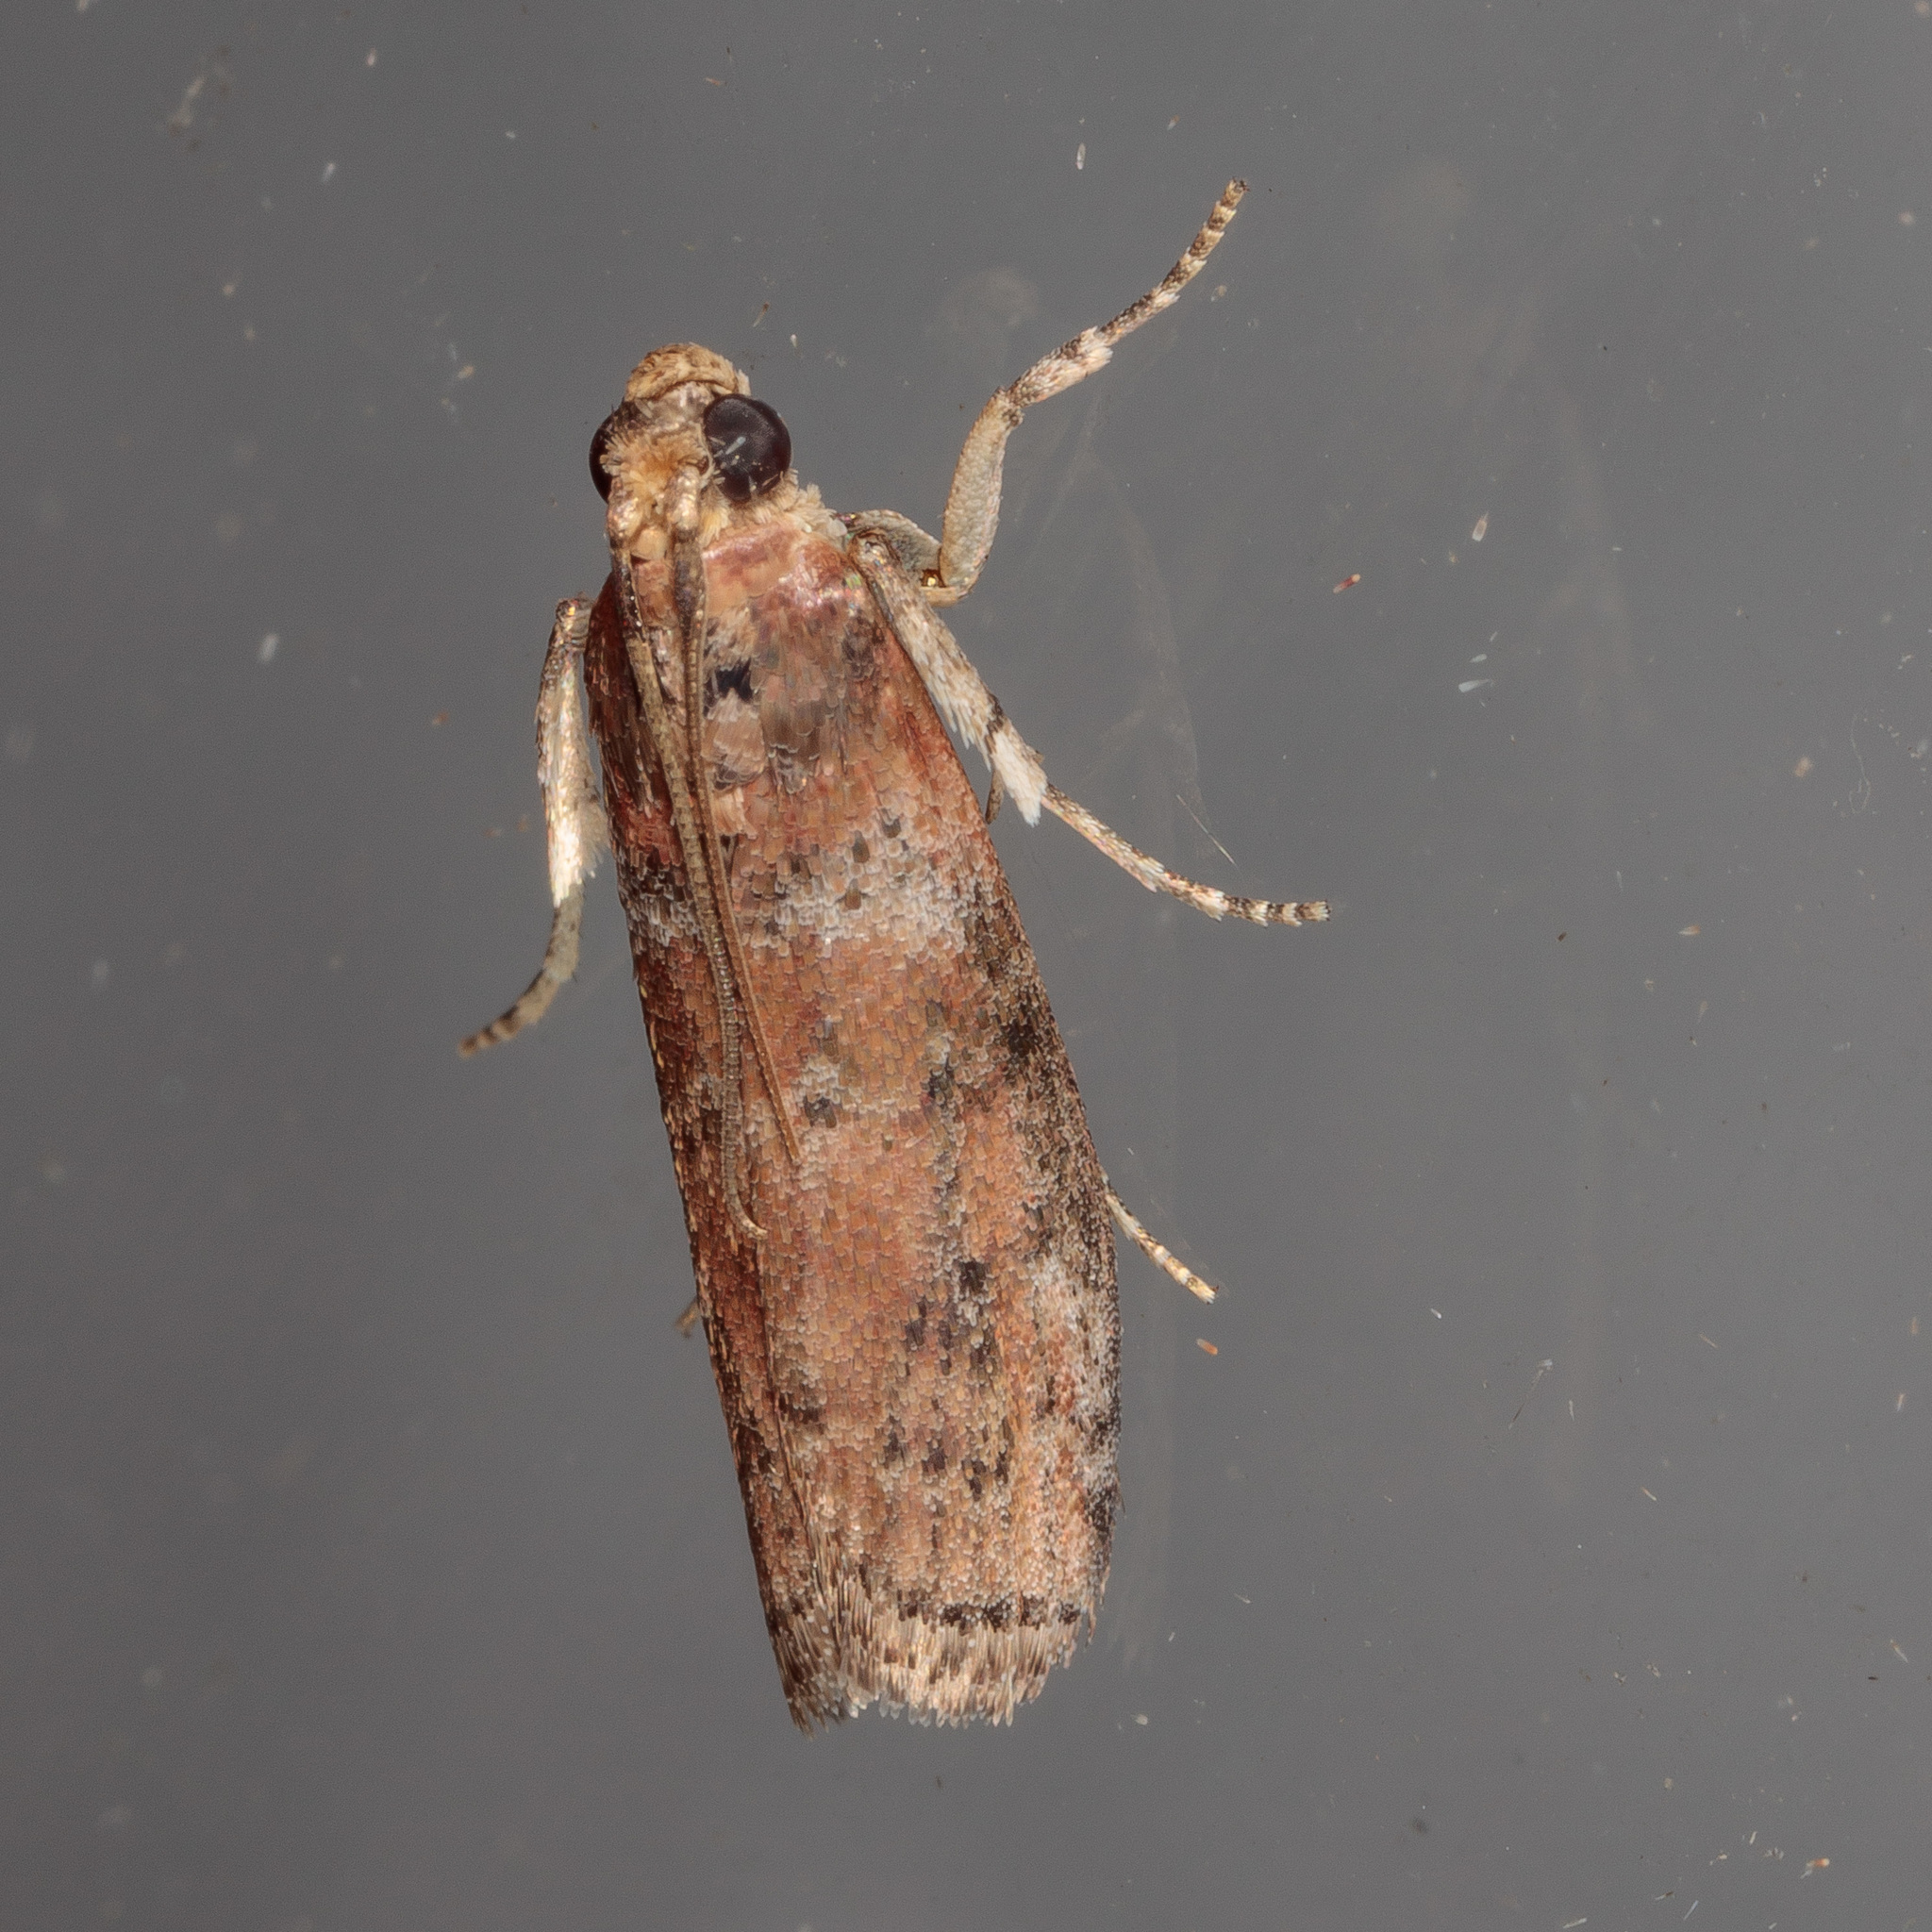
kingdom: Animalia
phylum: Arthropoda
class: Insecta
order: Lepidoptera
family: Pyralidae
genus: Sciota
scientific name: Sciota
